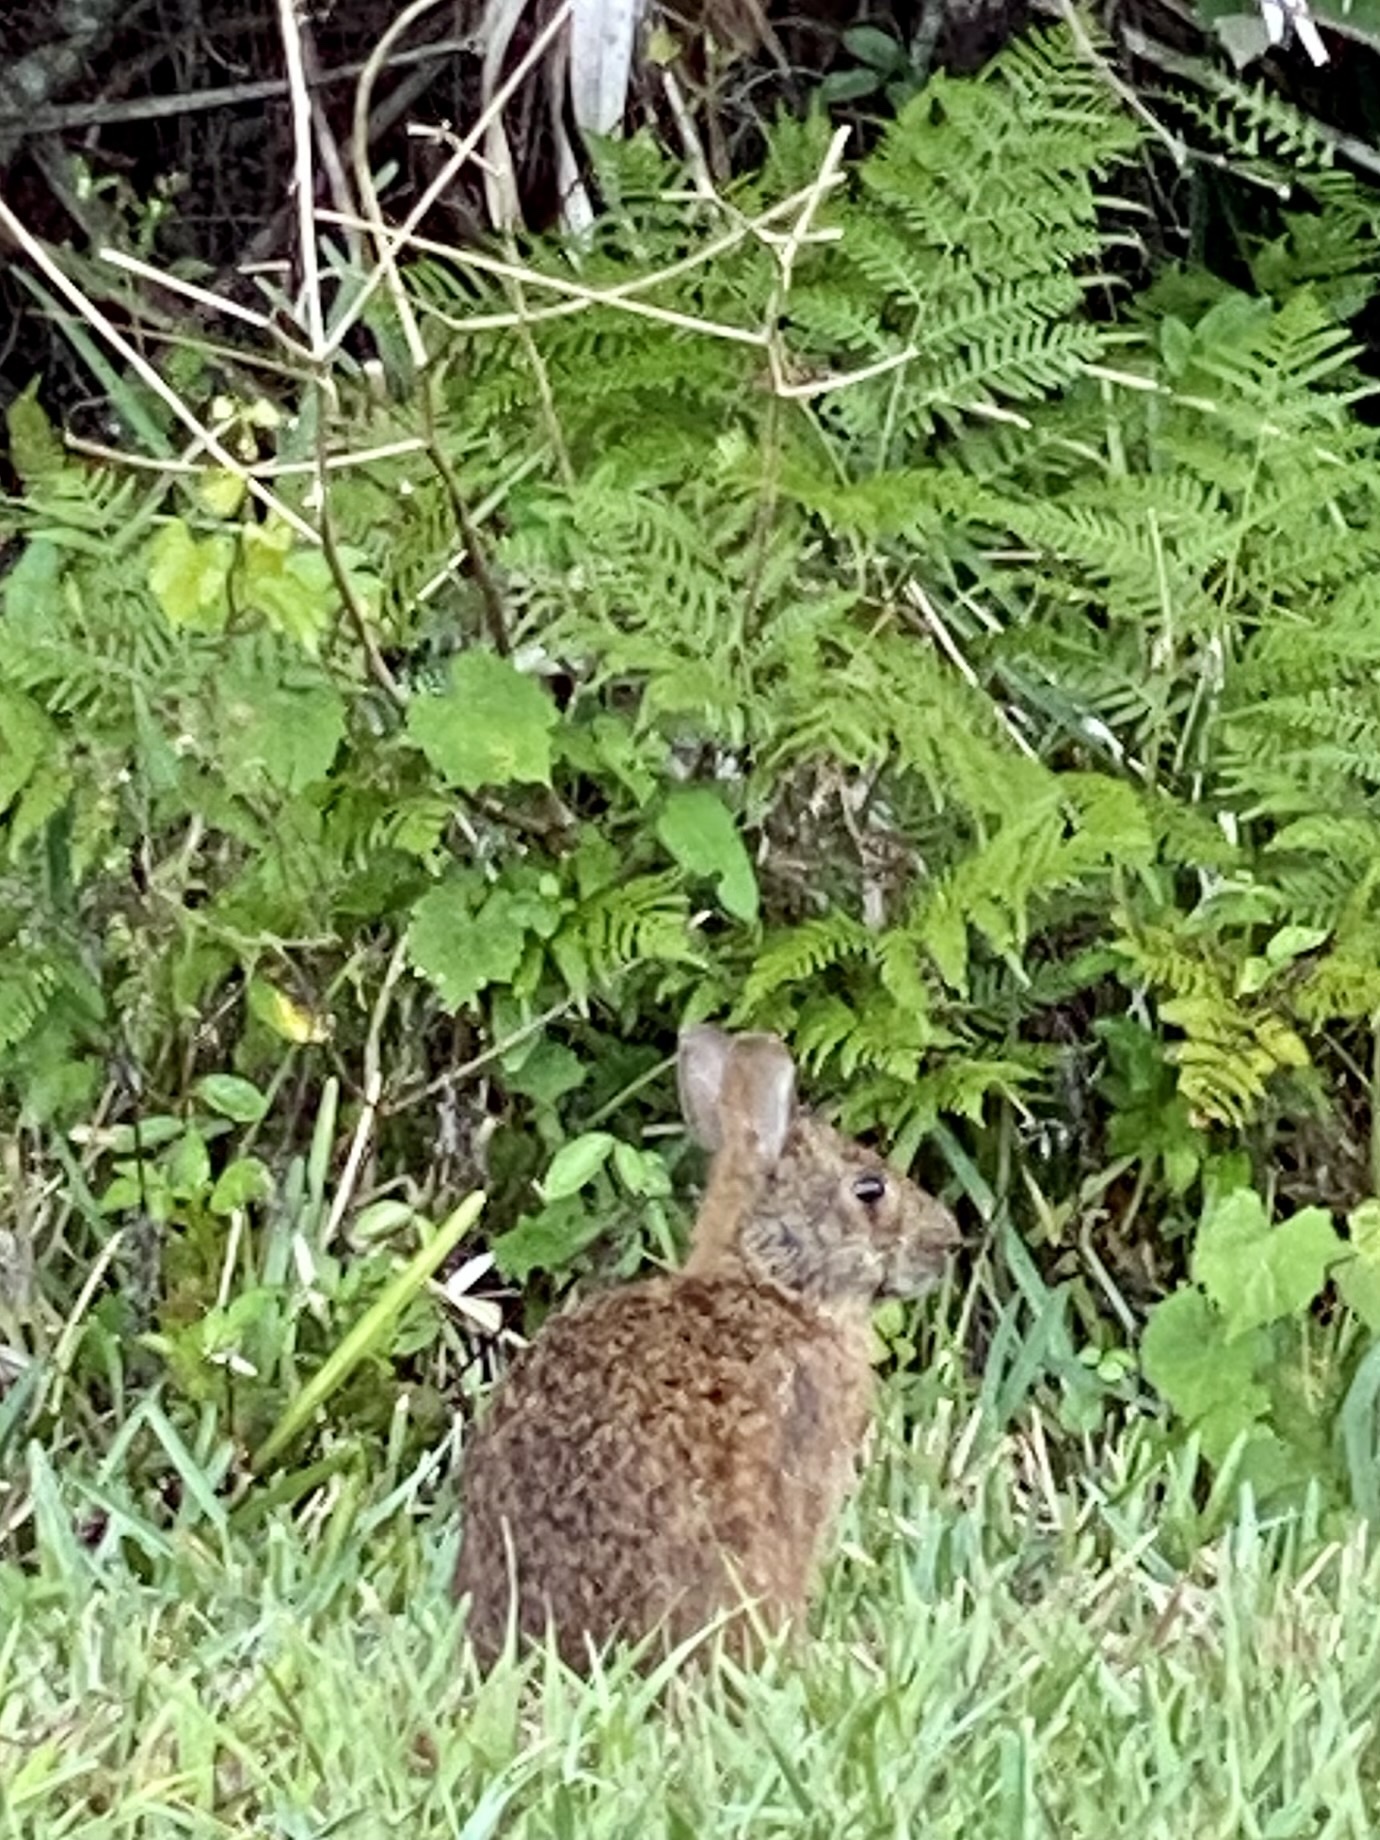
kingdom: Animalia
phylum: Chordata
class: Mammalia
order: Lagomorpha
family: Leporidae
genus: Sylvilagus
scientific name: Sylvilagus palustris
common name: Marsh rabbit
